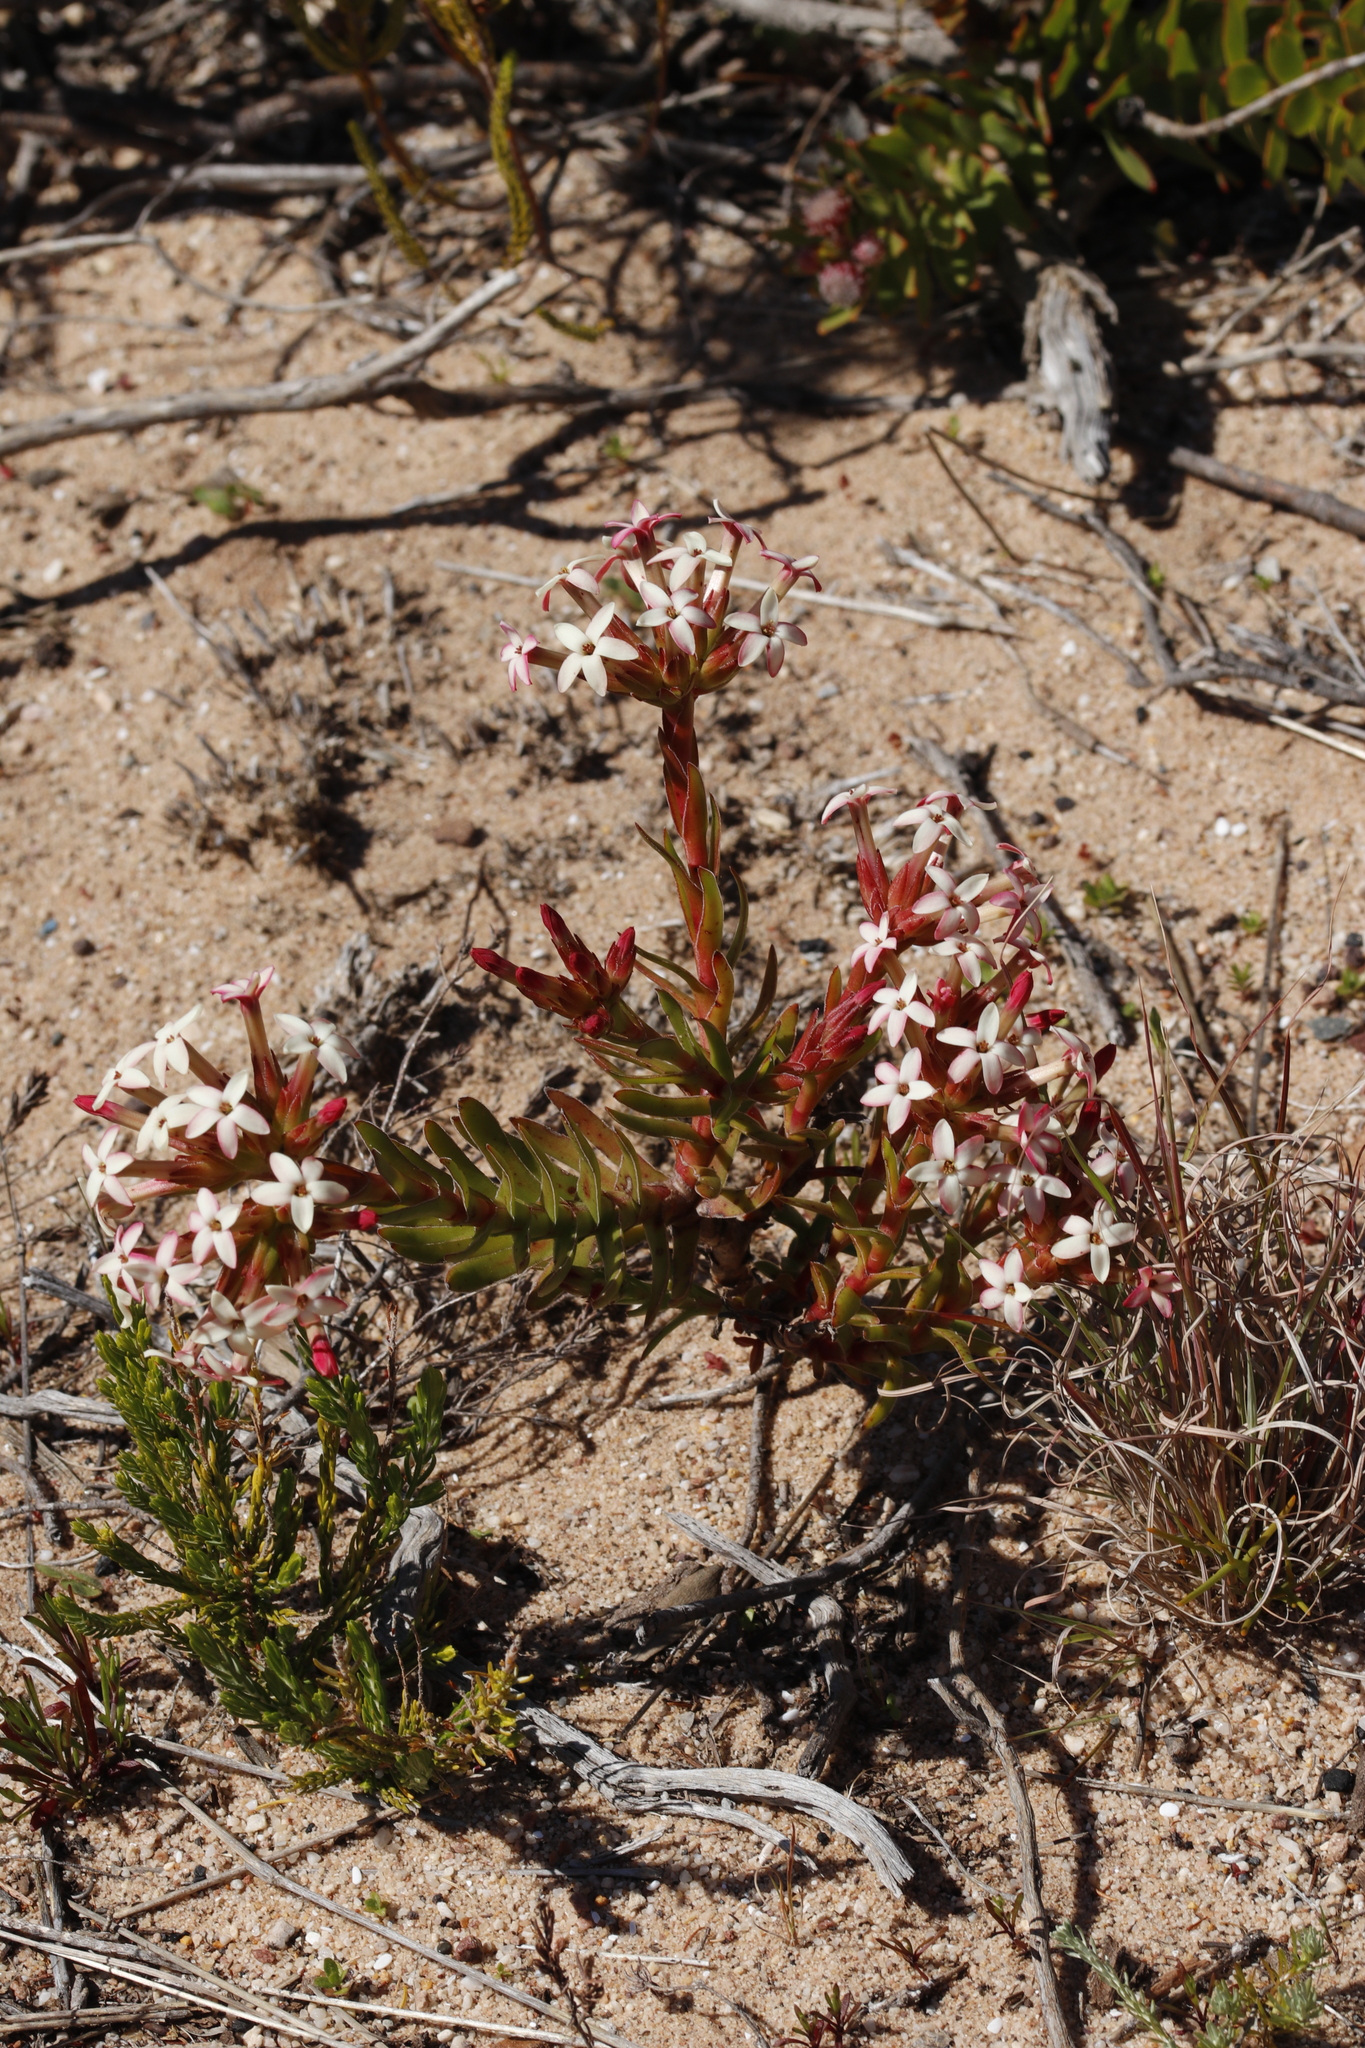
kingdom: Plantae
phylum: Tracheophyta
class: Magnoliopsida
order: Saxifragales
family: Crassulaceae
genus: Crassula
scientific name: Crassula fascicularis
